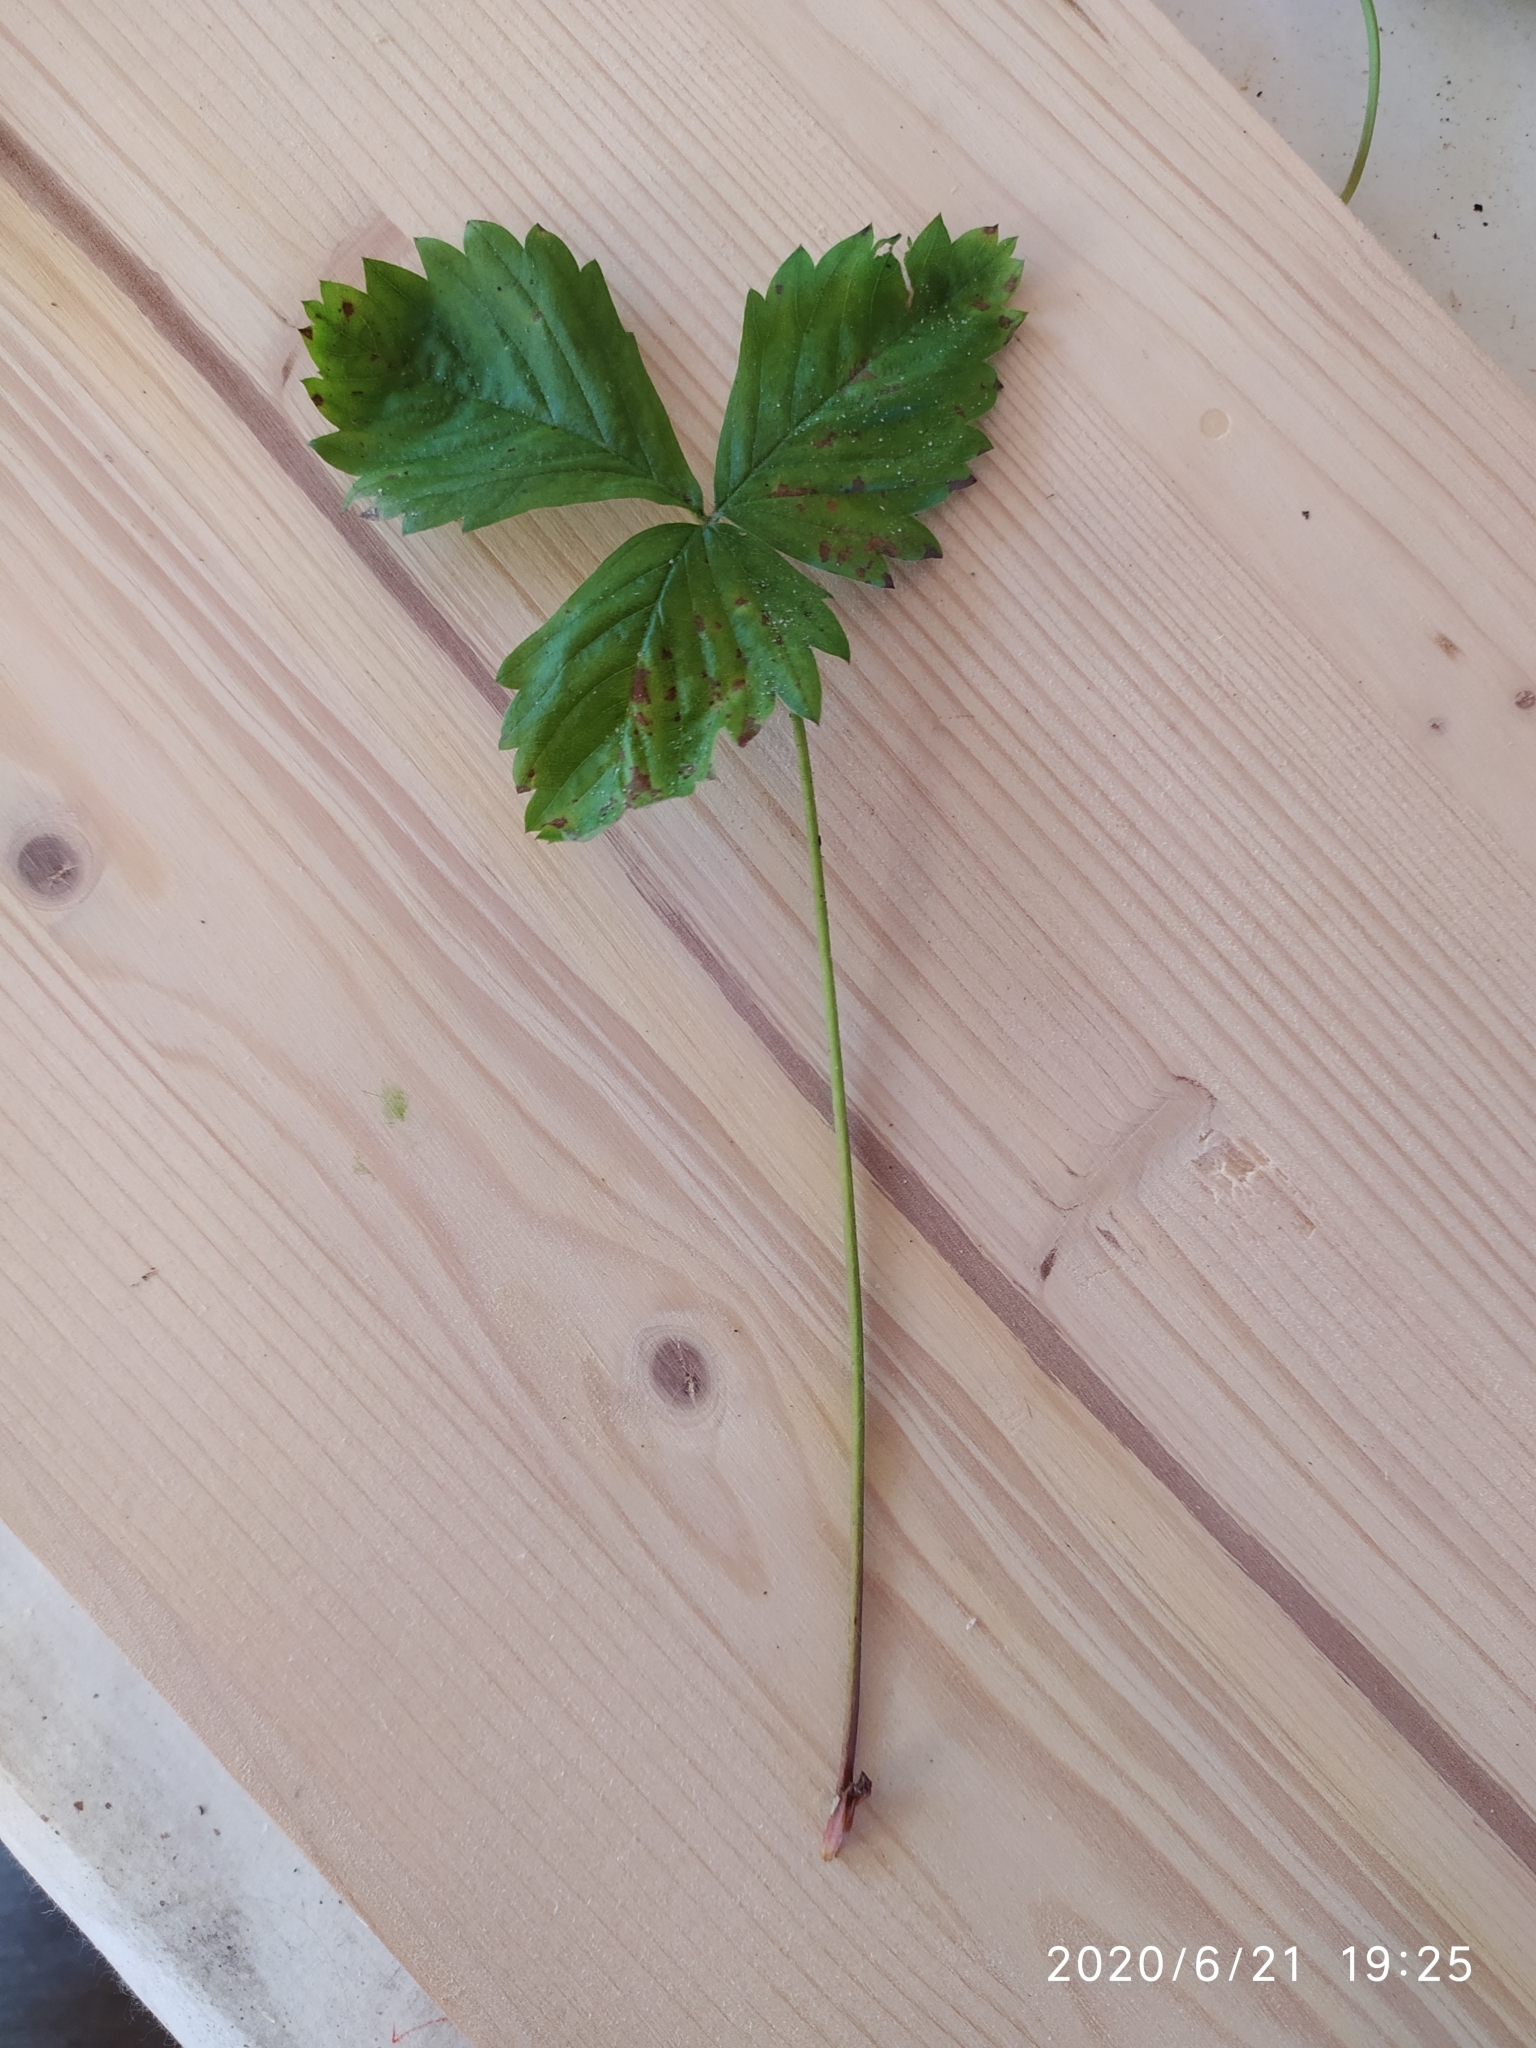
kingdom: Plantae
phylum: Tracheophyta
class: Magnoliopsida
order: Rosales
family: Rosaceae
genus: Fragaria
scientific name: Fragaria vesca
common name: Wild strawberry
